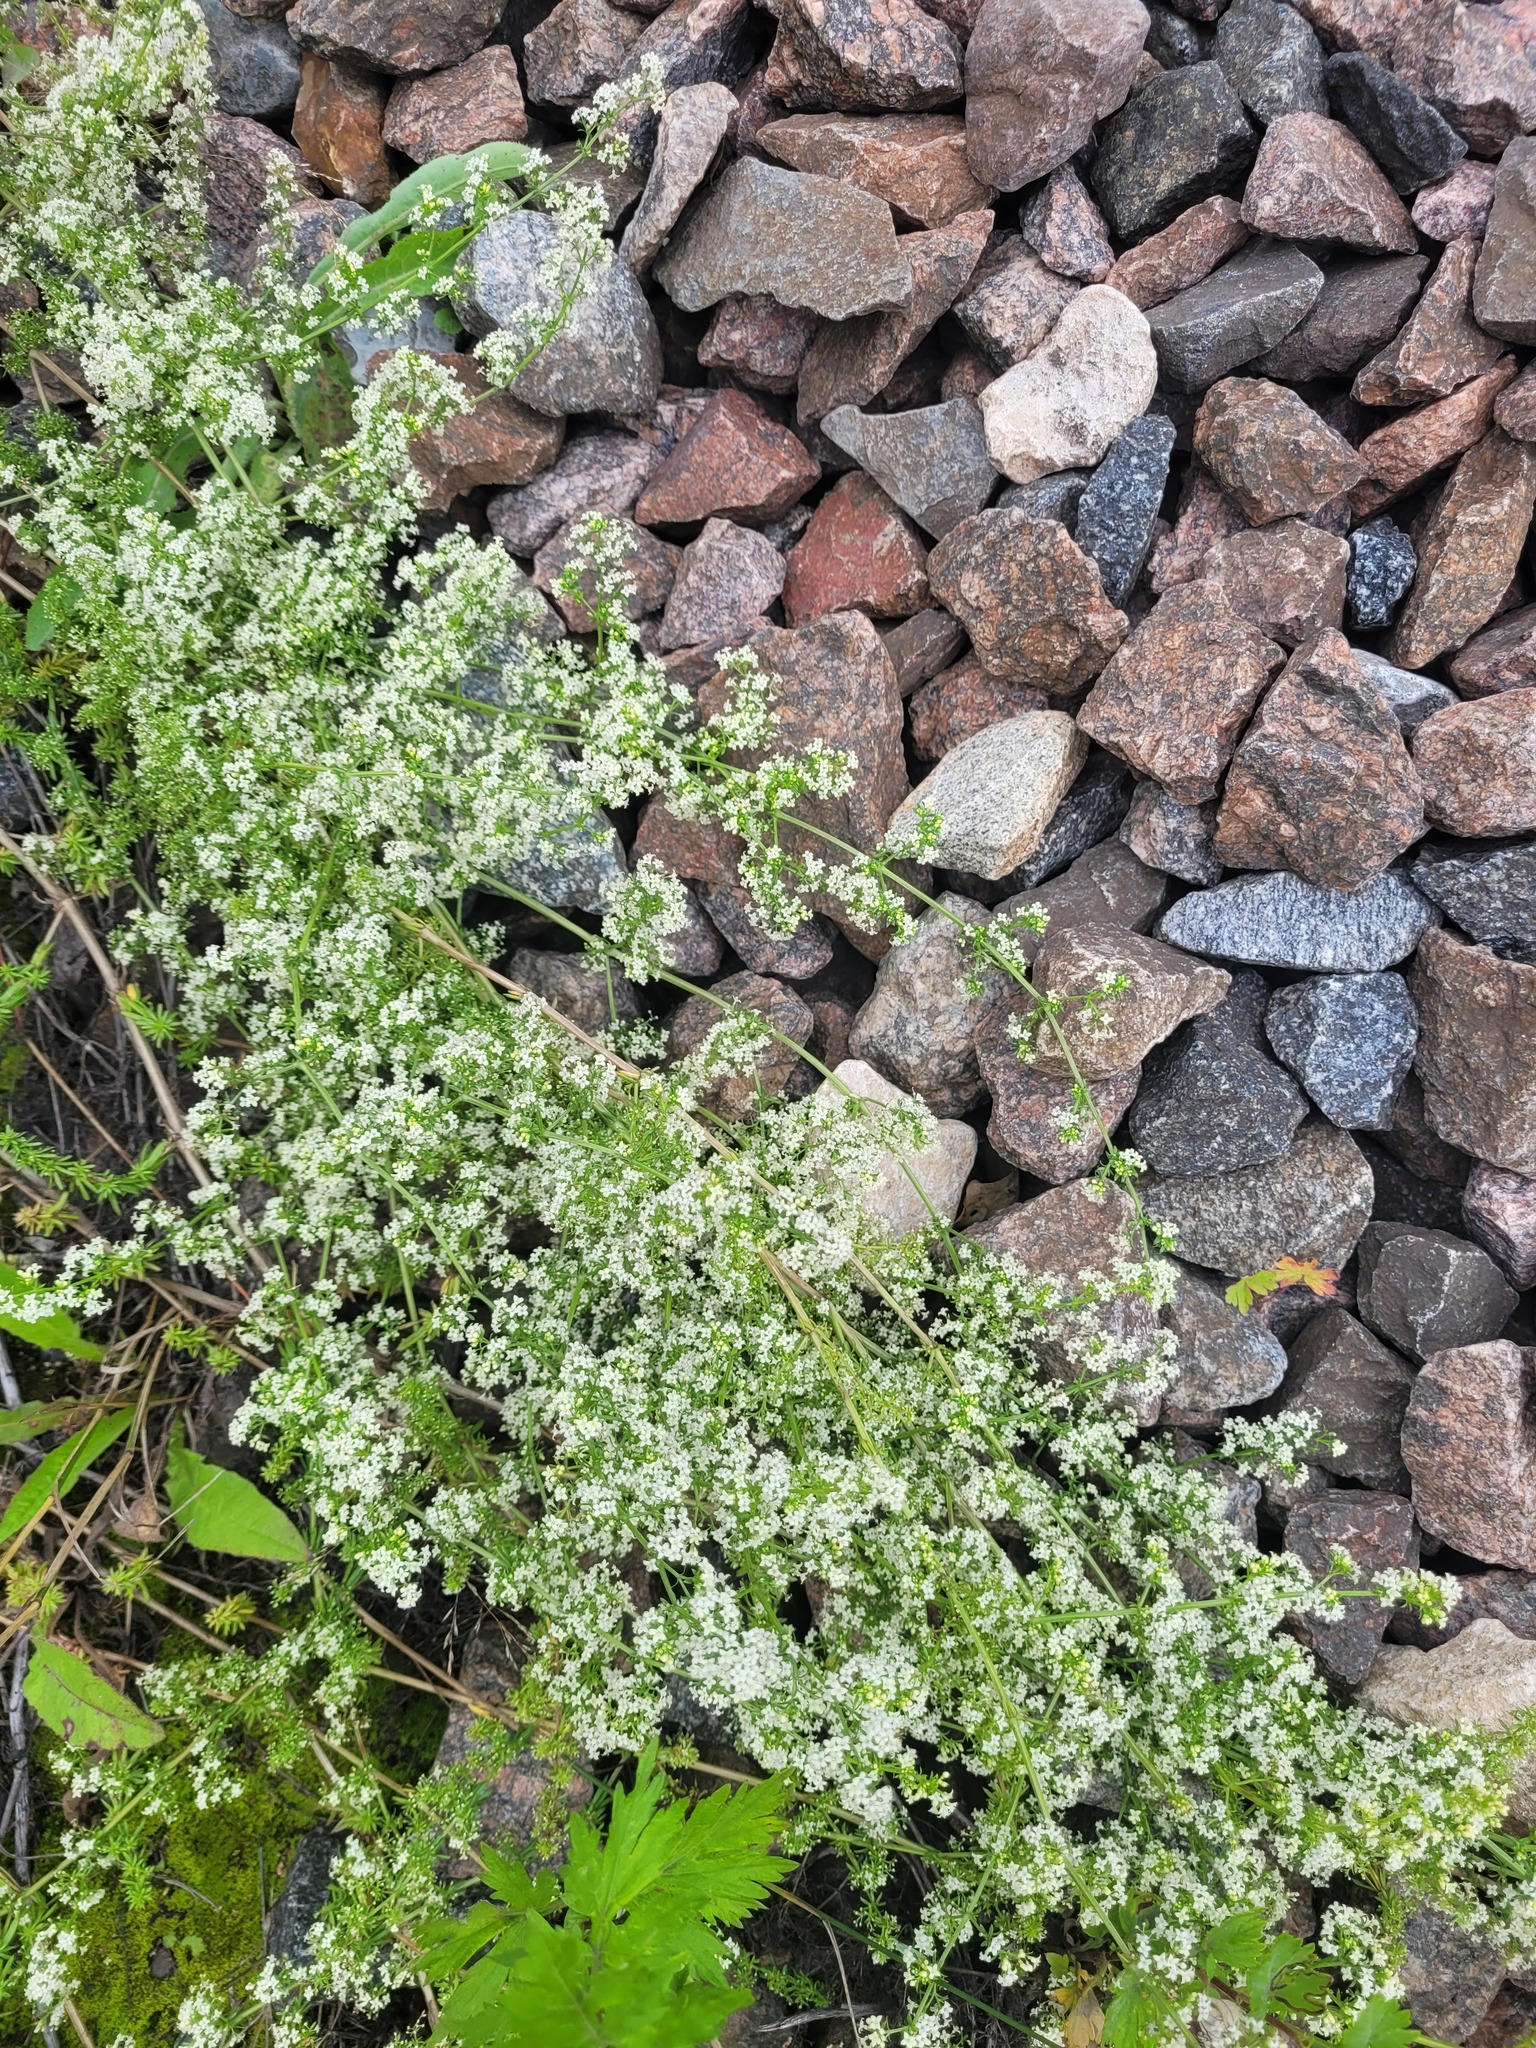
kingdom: Plantae
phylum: Tracheophyta
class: Magnoliopsida
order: Gentianales
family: Rubiaceae
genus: Galium
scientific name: Galium humifusum
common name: Spreading bedstraw
